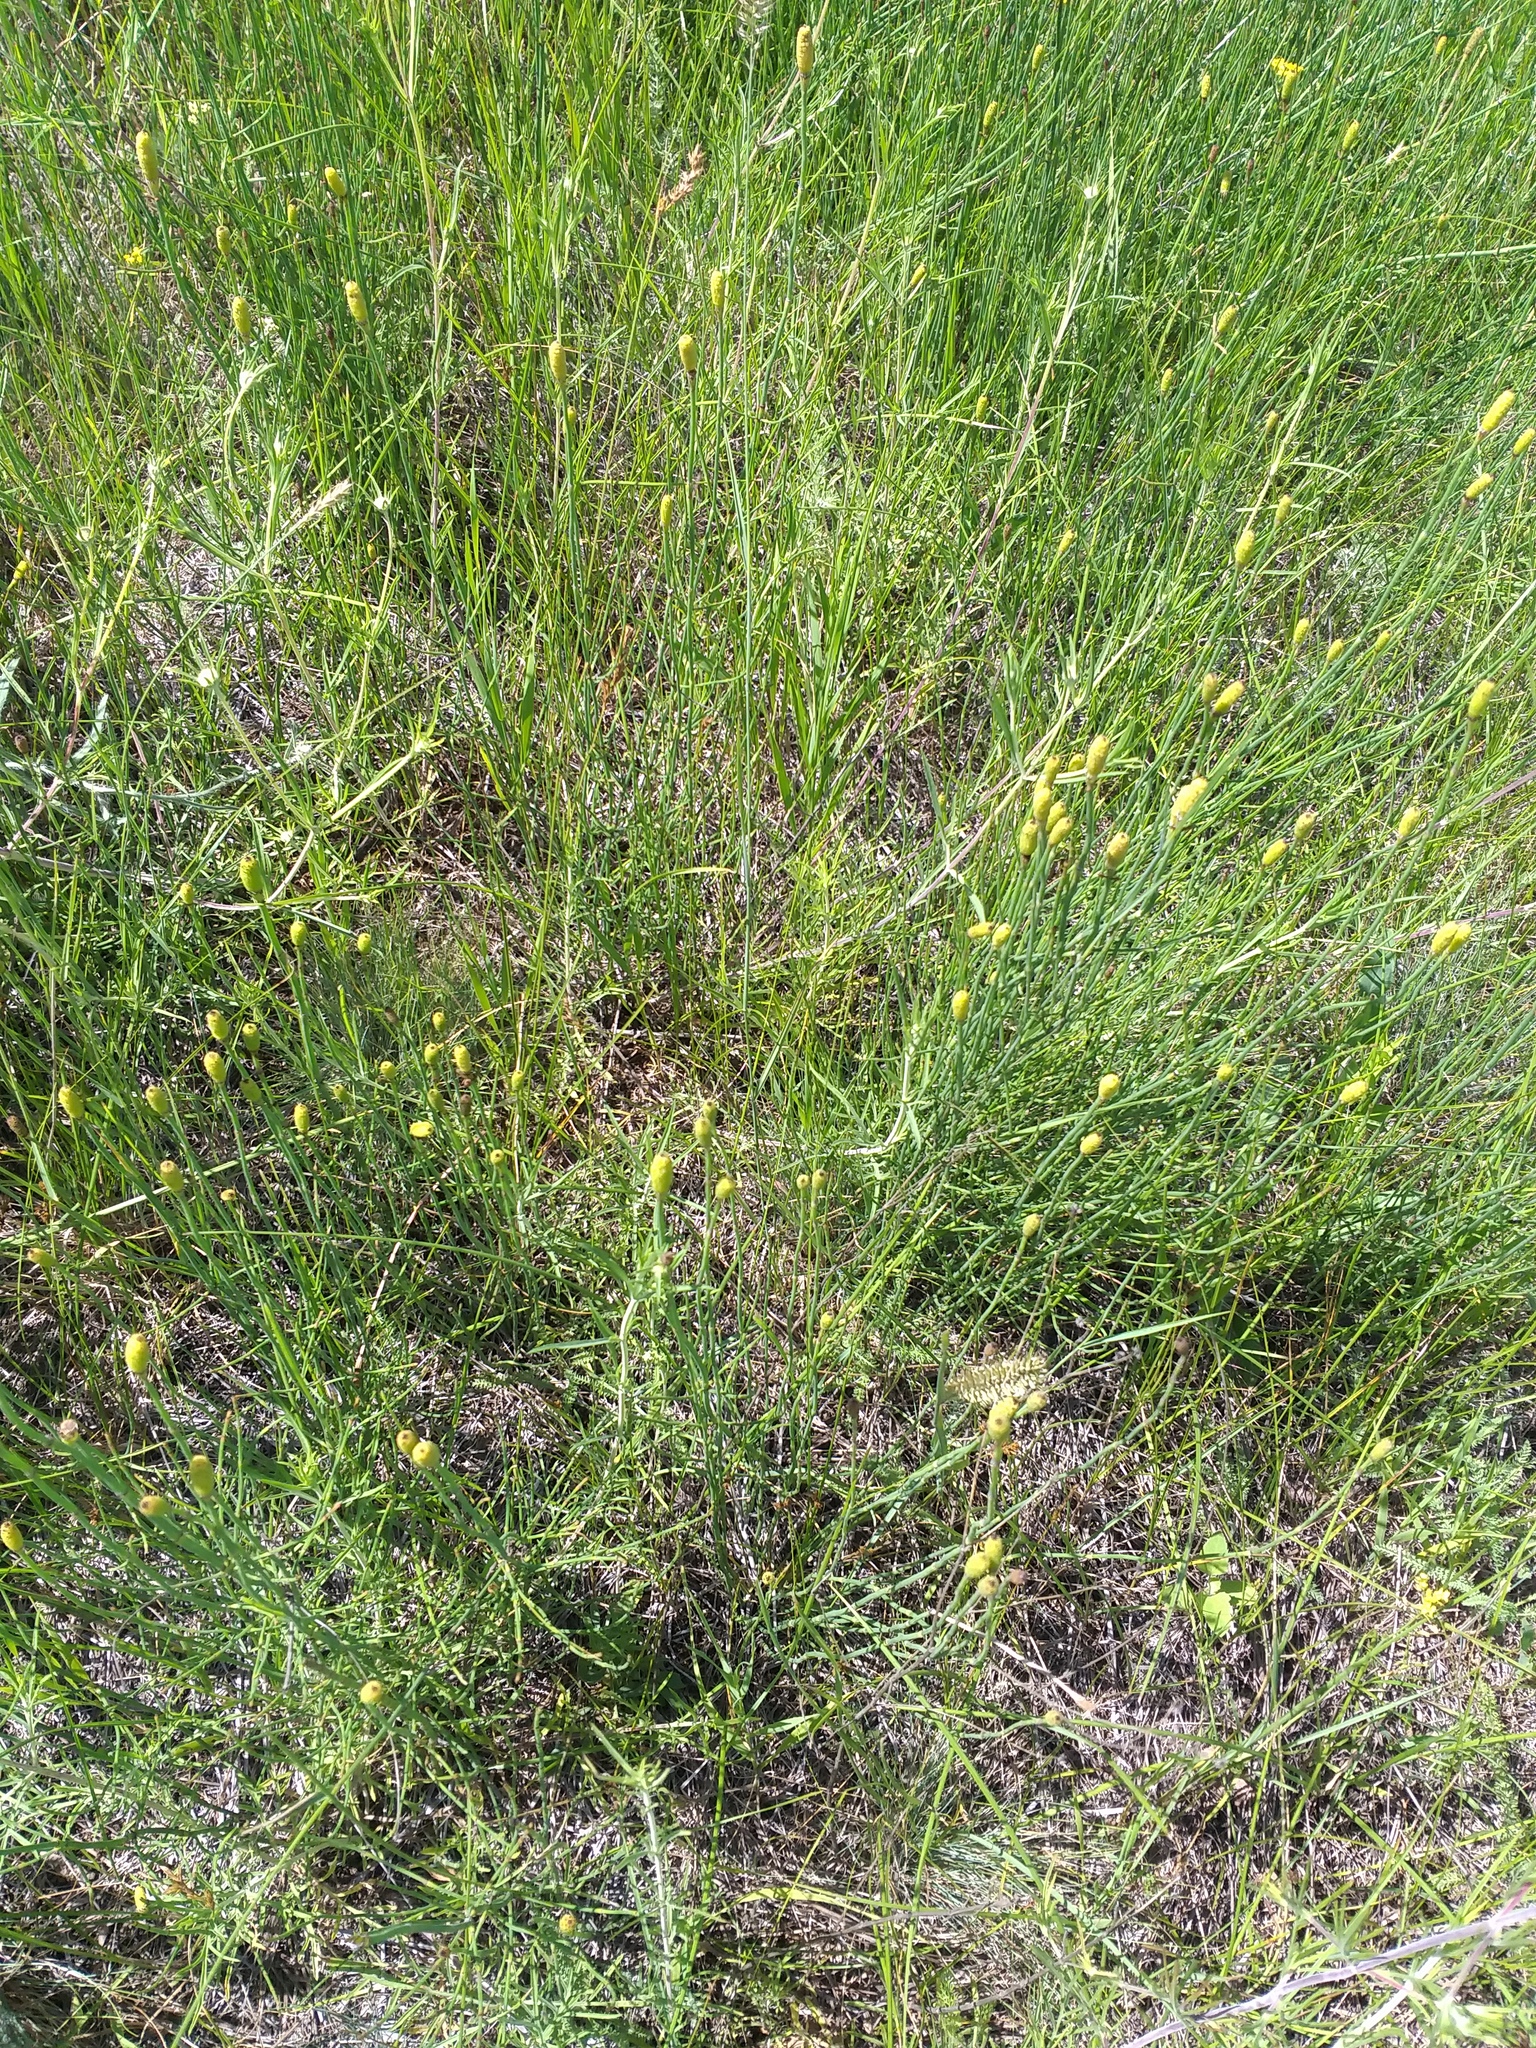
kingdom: Plantae
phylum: Tracheophyta
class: Polypodiopsida
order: Equisetales
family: Equisetaceae
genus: Equisetum
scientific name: Equisetum ramosissimum
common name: Branched horsetail
